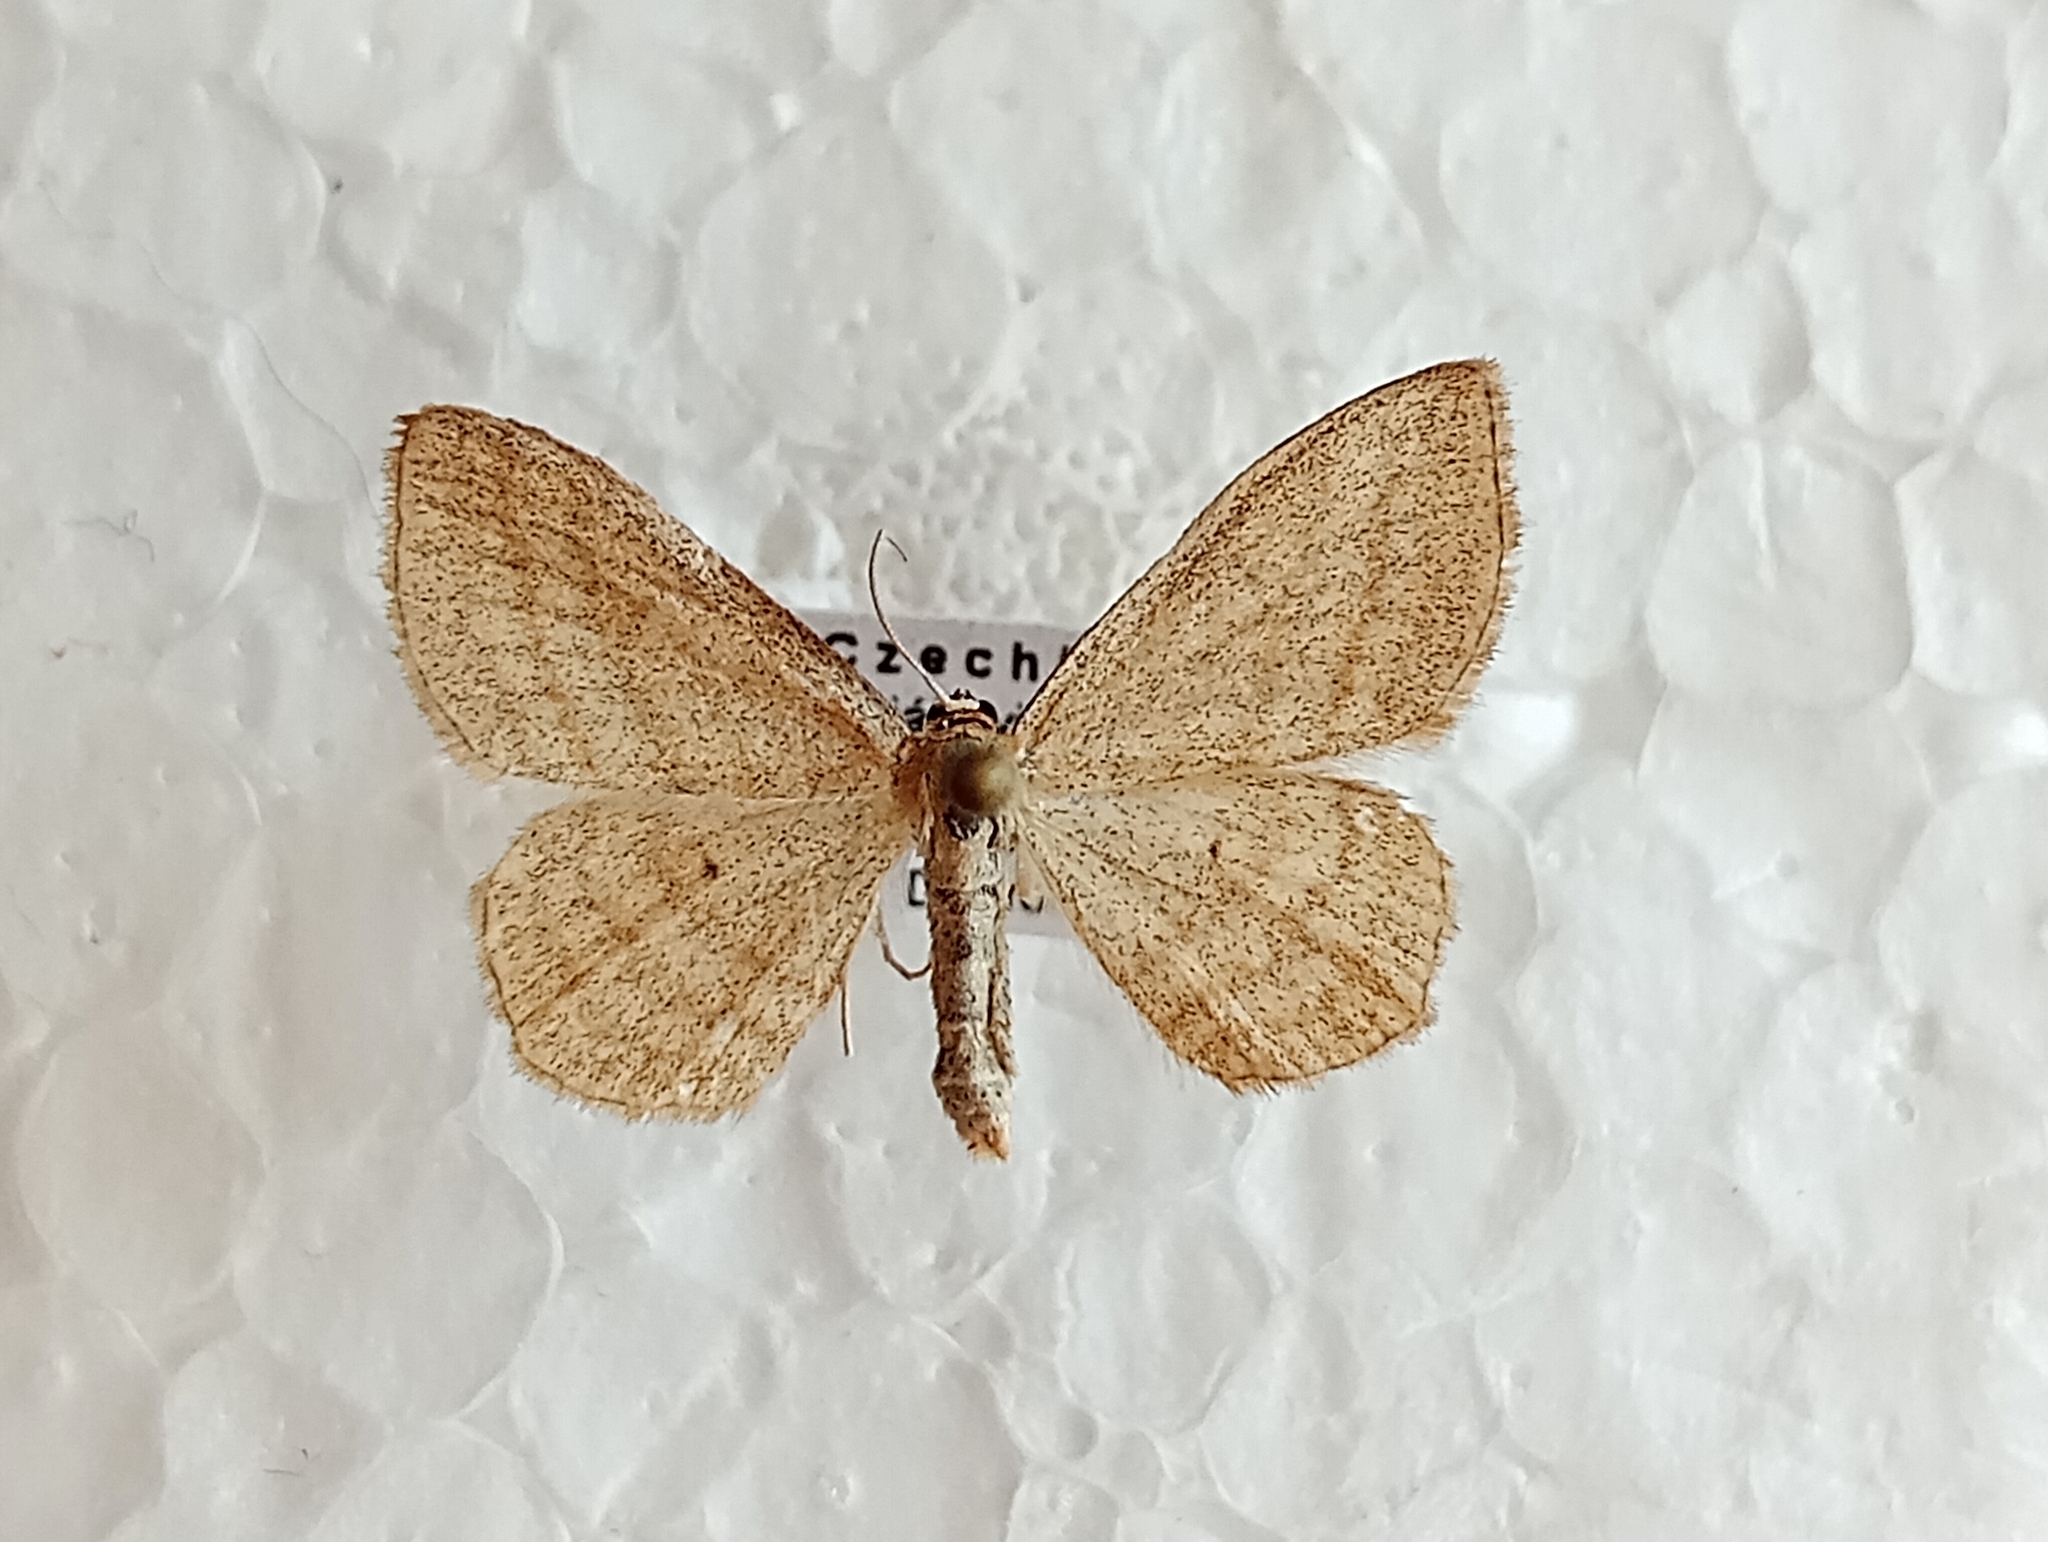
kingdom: Animalia
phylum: Arthropoda
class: Insecta
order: Lepidoptera
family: Geometridae
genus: Scopula
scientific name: Scopula virgulata
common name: Streaked wave
